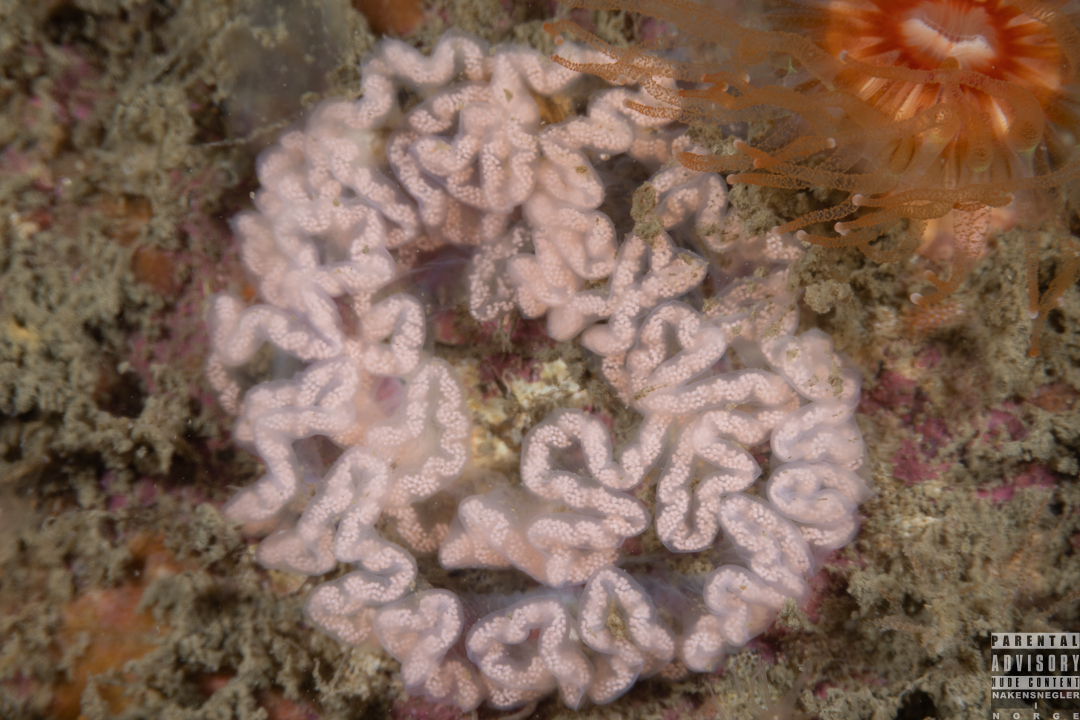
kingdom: Animalia
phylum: Mollusca
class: Gastropoda
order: Nudibranchia
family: Tritoniidae
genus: Tritonia
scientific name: Tritonia hombergii
